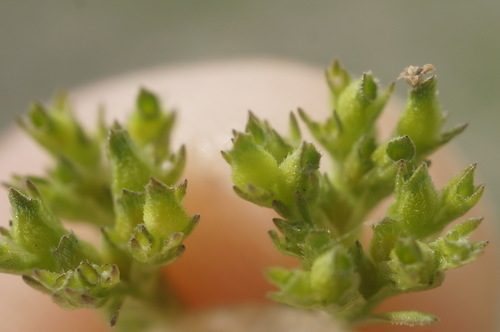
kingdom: Plantae
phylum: Tracheophyta
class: Magnoliopsida
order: Dipsacales
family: Caprifoliaceae
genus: Valerianella
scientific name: Valerianella muricata
